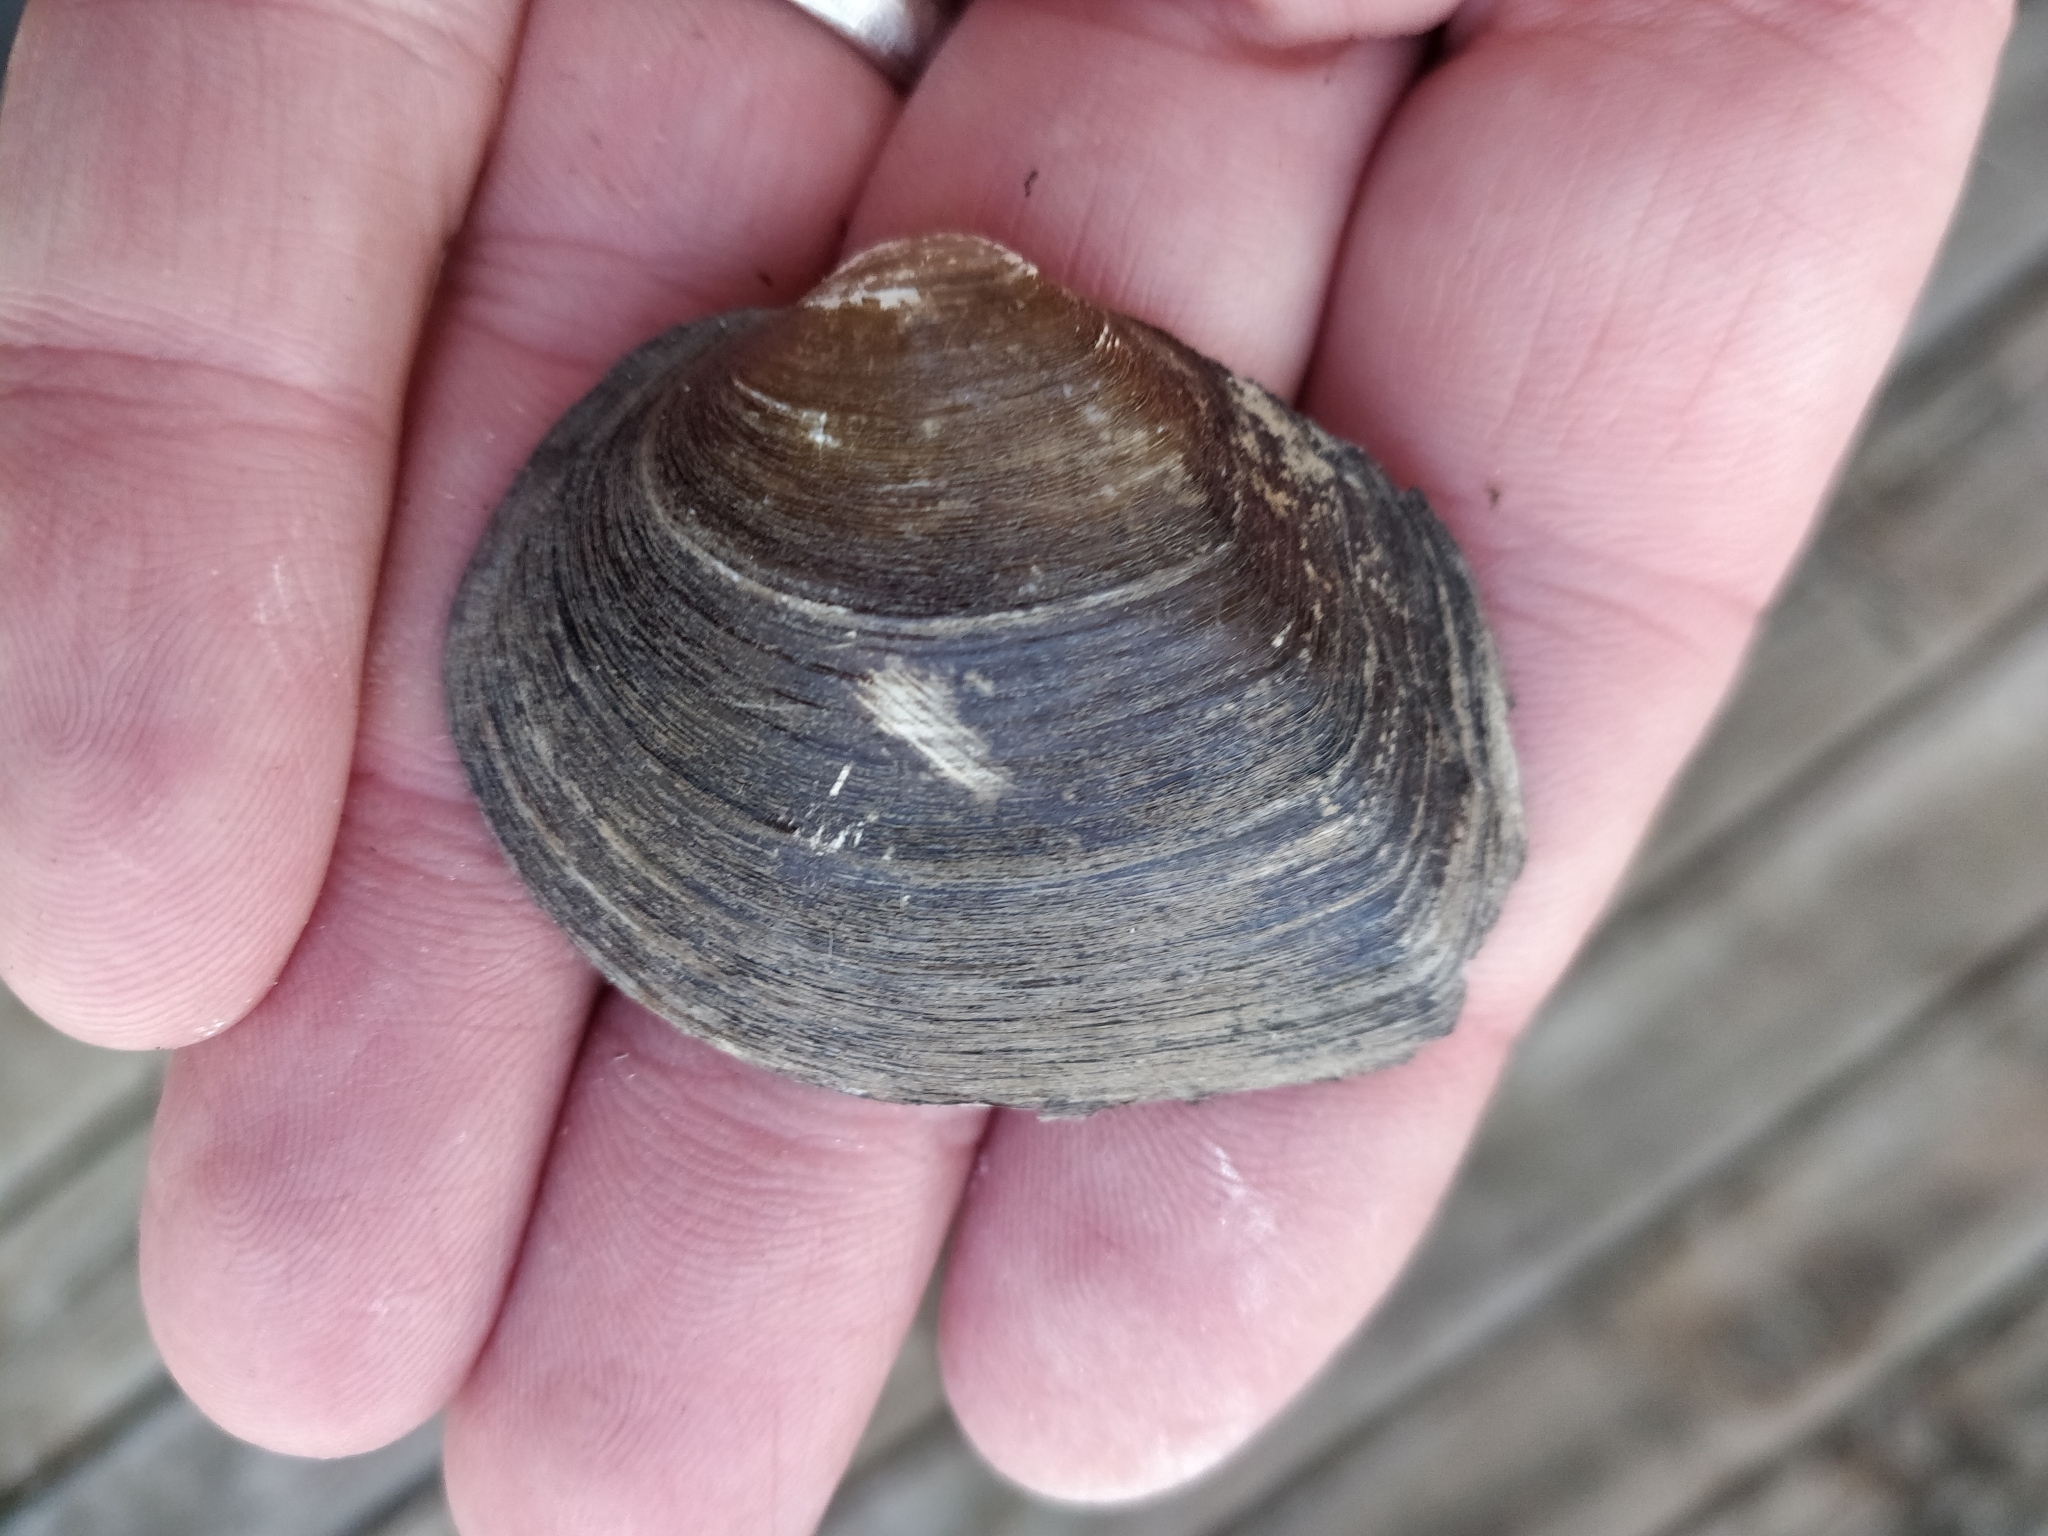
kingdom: Animalia
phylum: Mollusca
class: Bivalvia
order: Unionida
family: Unionidae
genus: Fusconaia
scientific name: Fusconaia flava
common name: Wabash pigtoe
